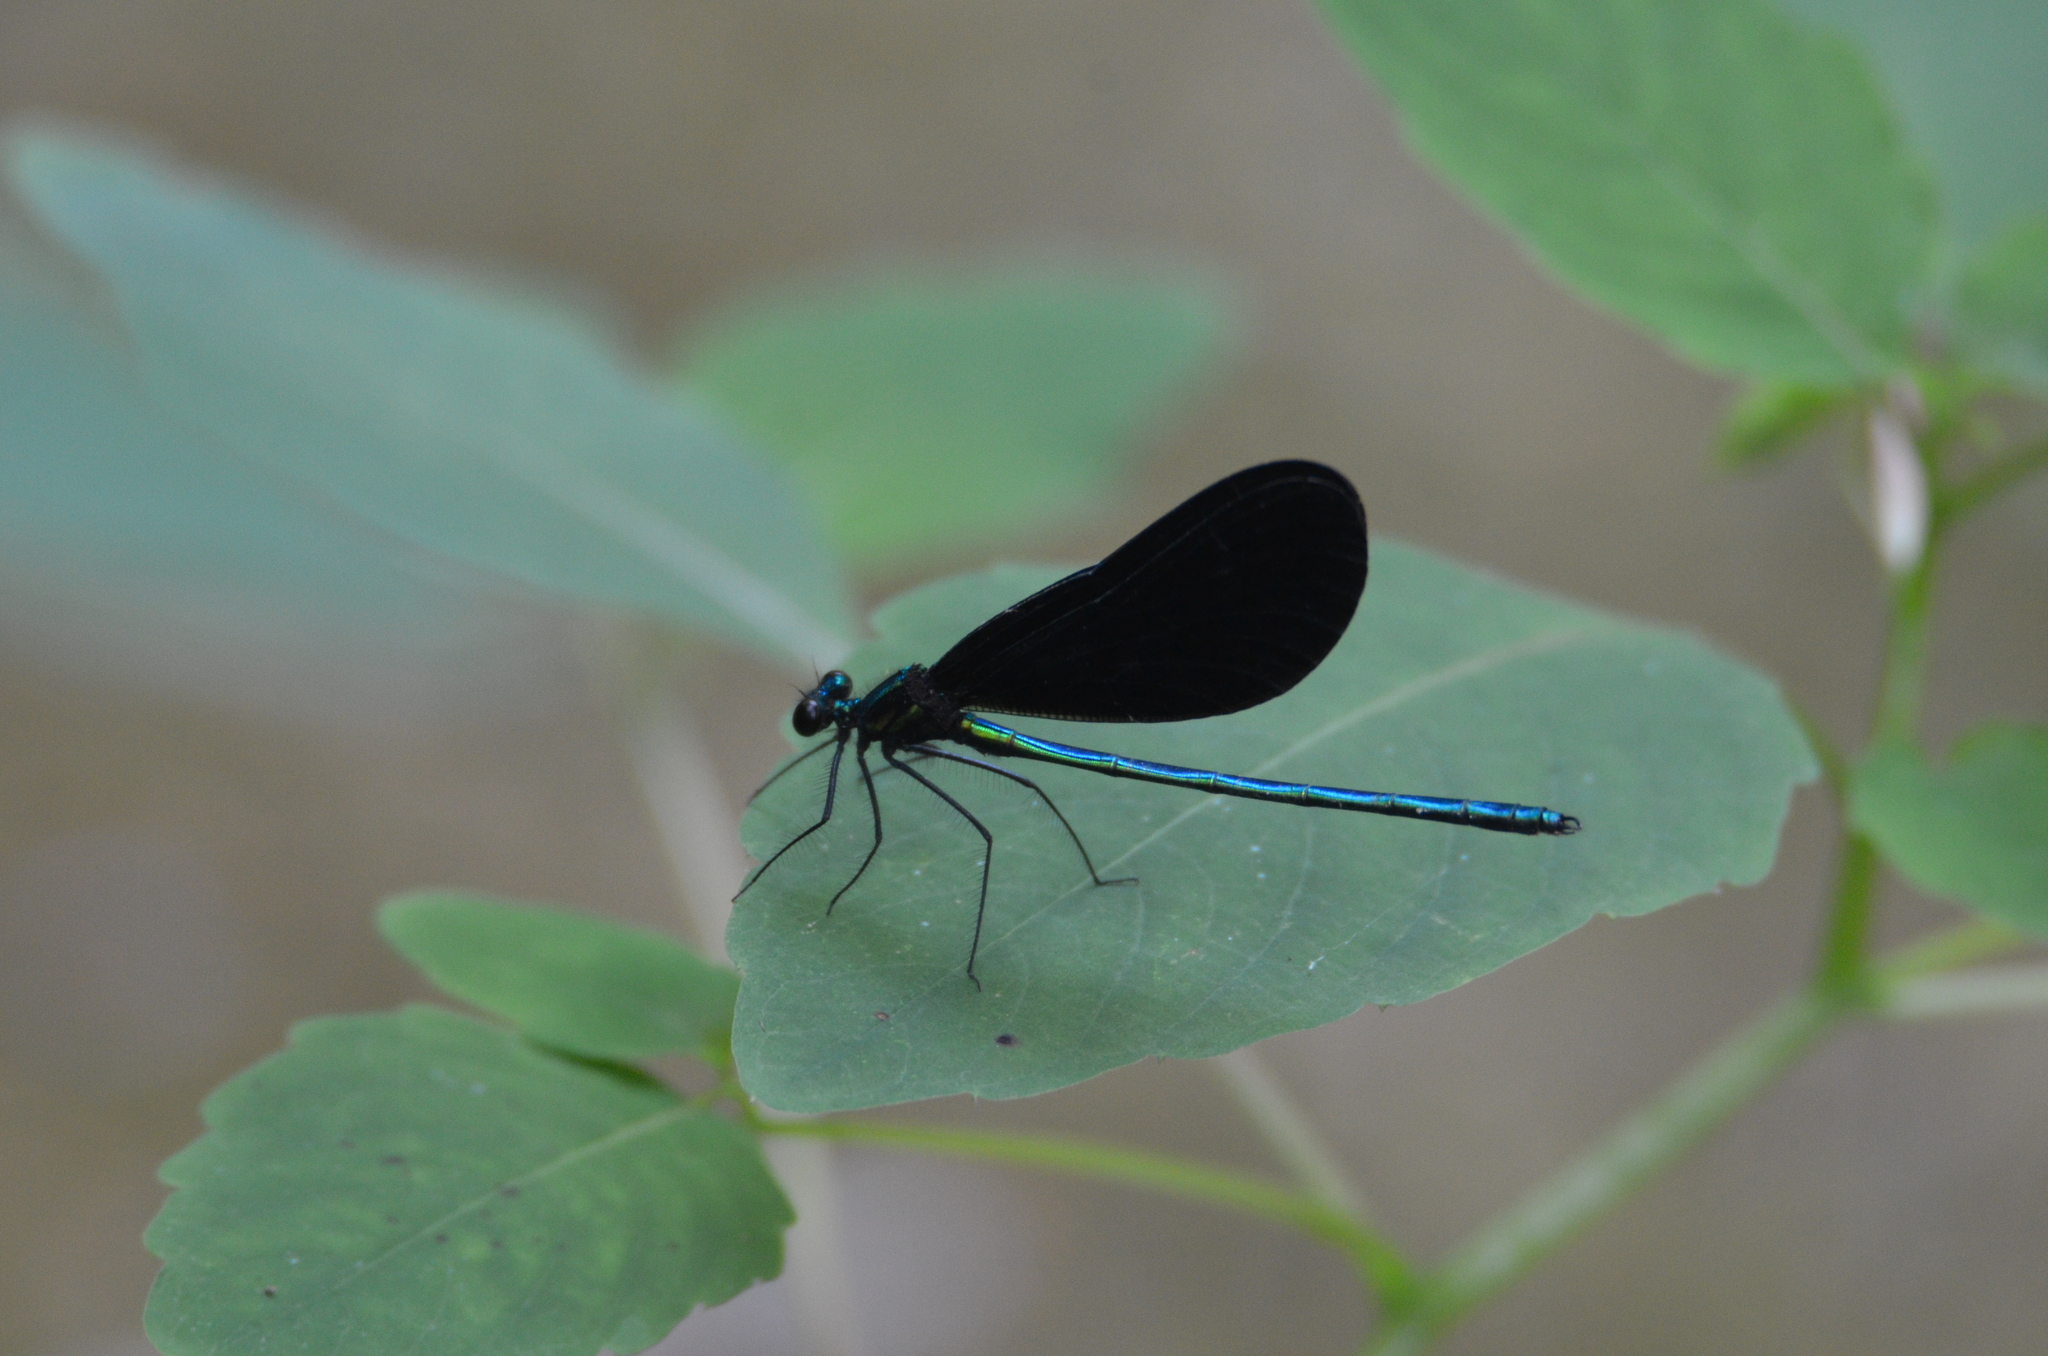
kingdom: Animalia
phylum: Arthropoda
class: Insecta
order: Odonata
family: Calopterygidae
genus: Calopteryx
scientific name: Calopteryx maculata
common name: Ebony jewelwing
